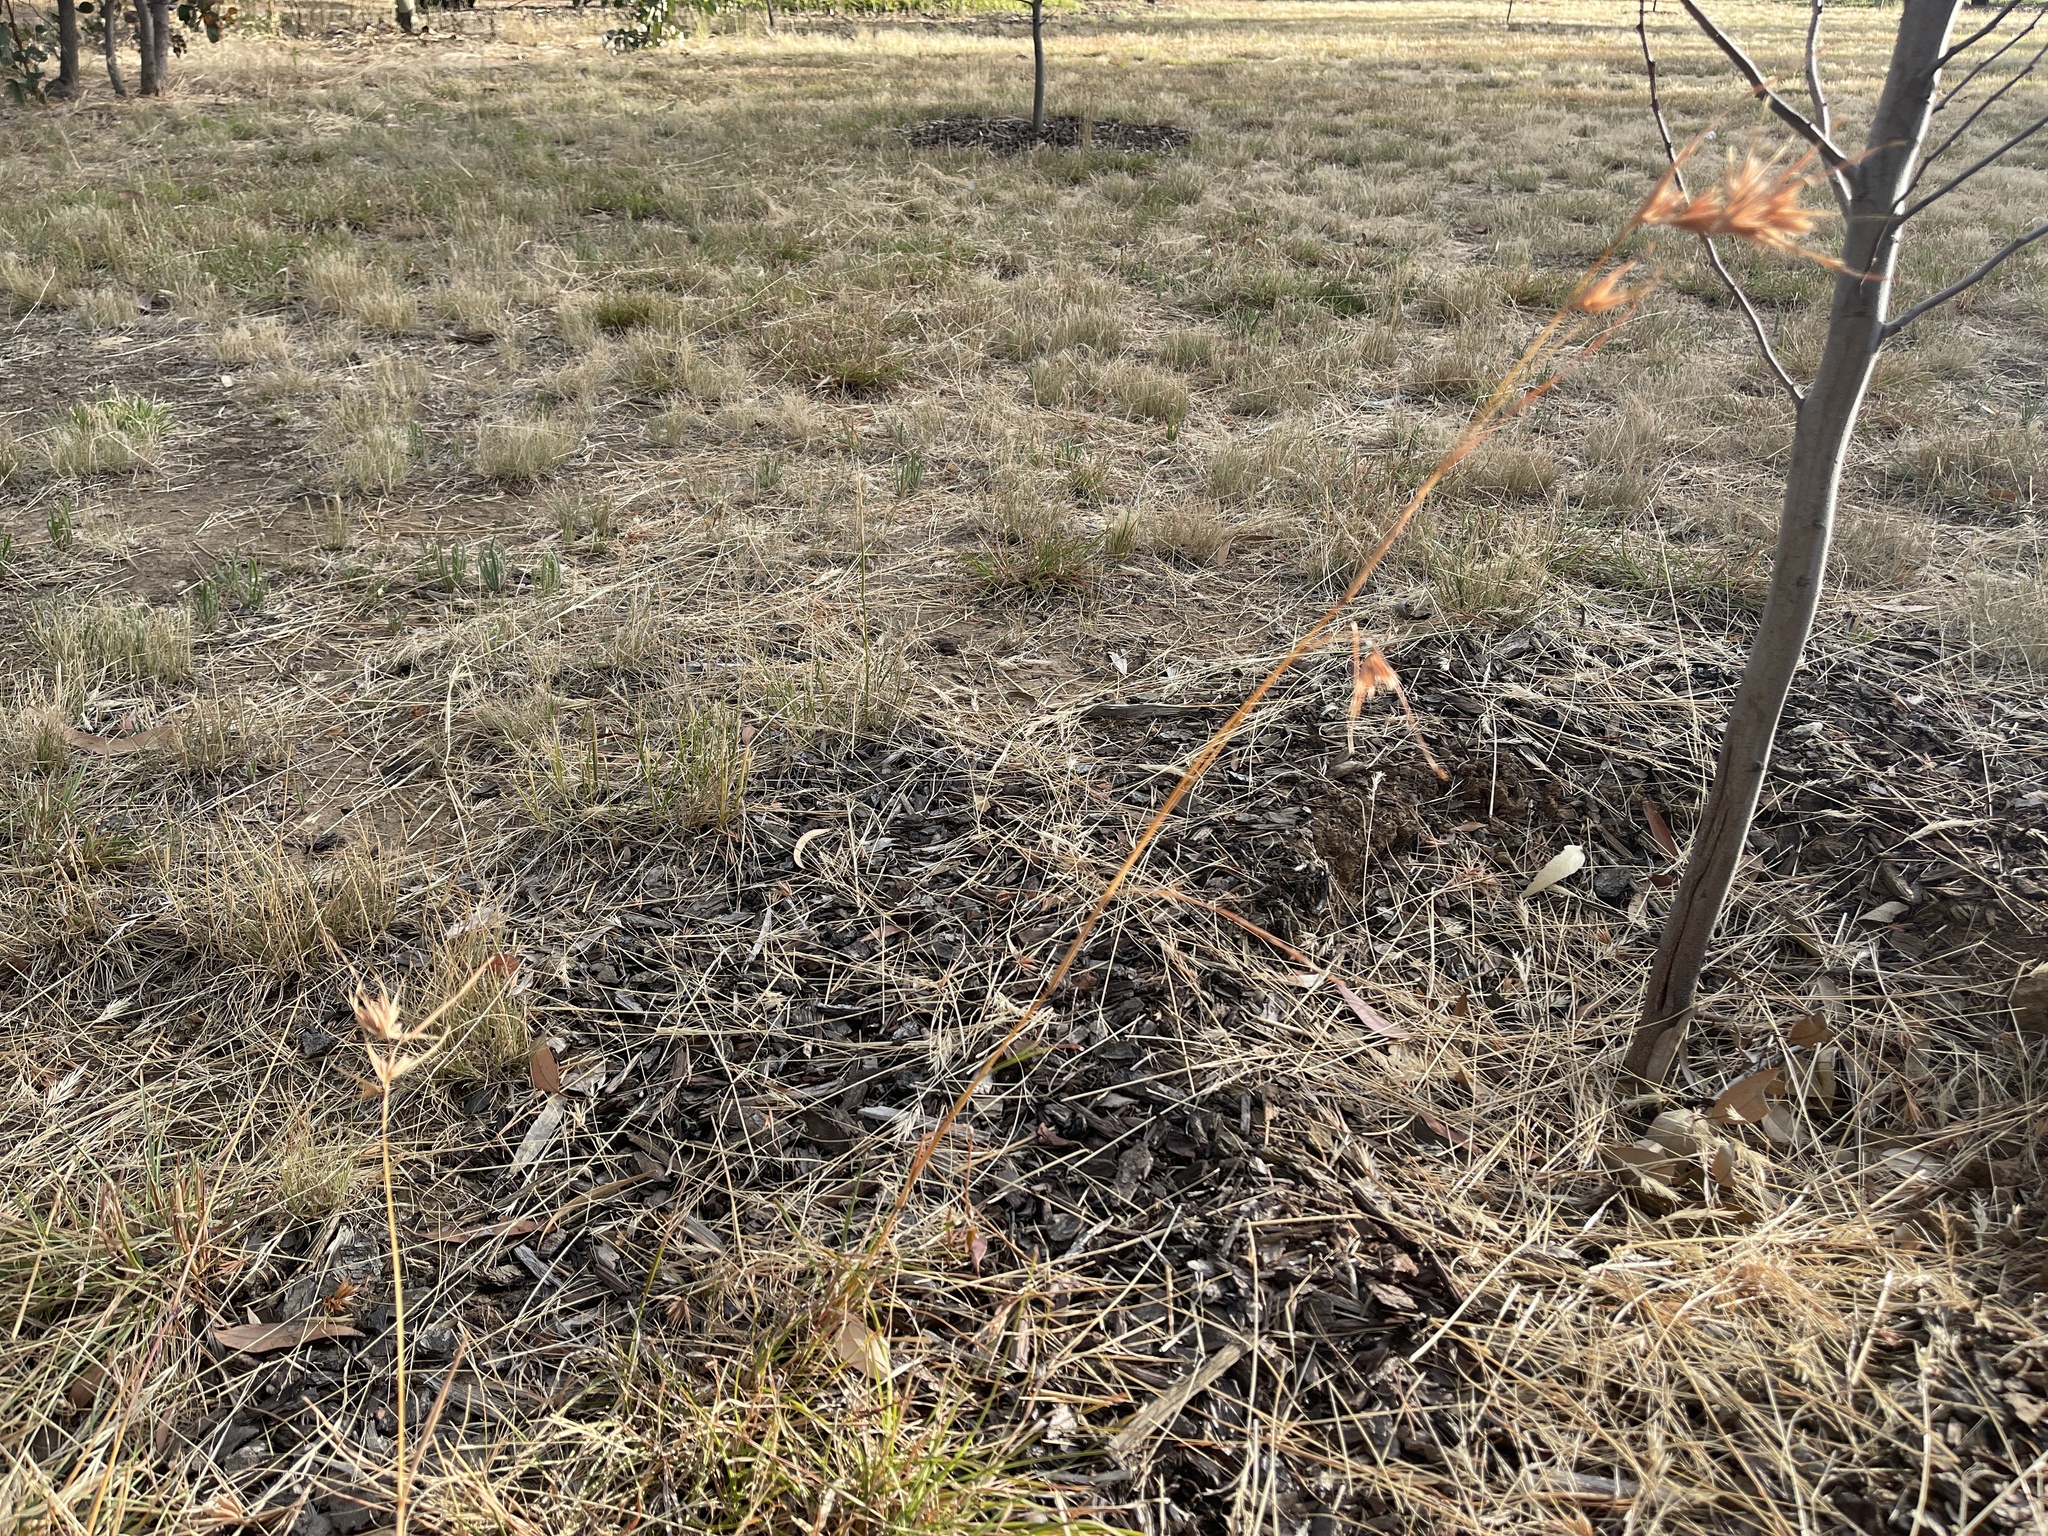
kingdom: Plantae
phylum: Tracheophyta
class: Liliopsida
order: Poales
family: Poaceae
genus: Themeda
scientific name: Themeda triandra
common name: Kangaroo grass
